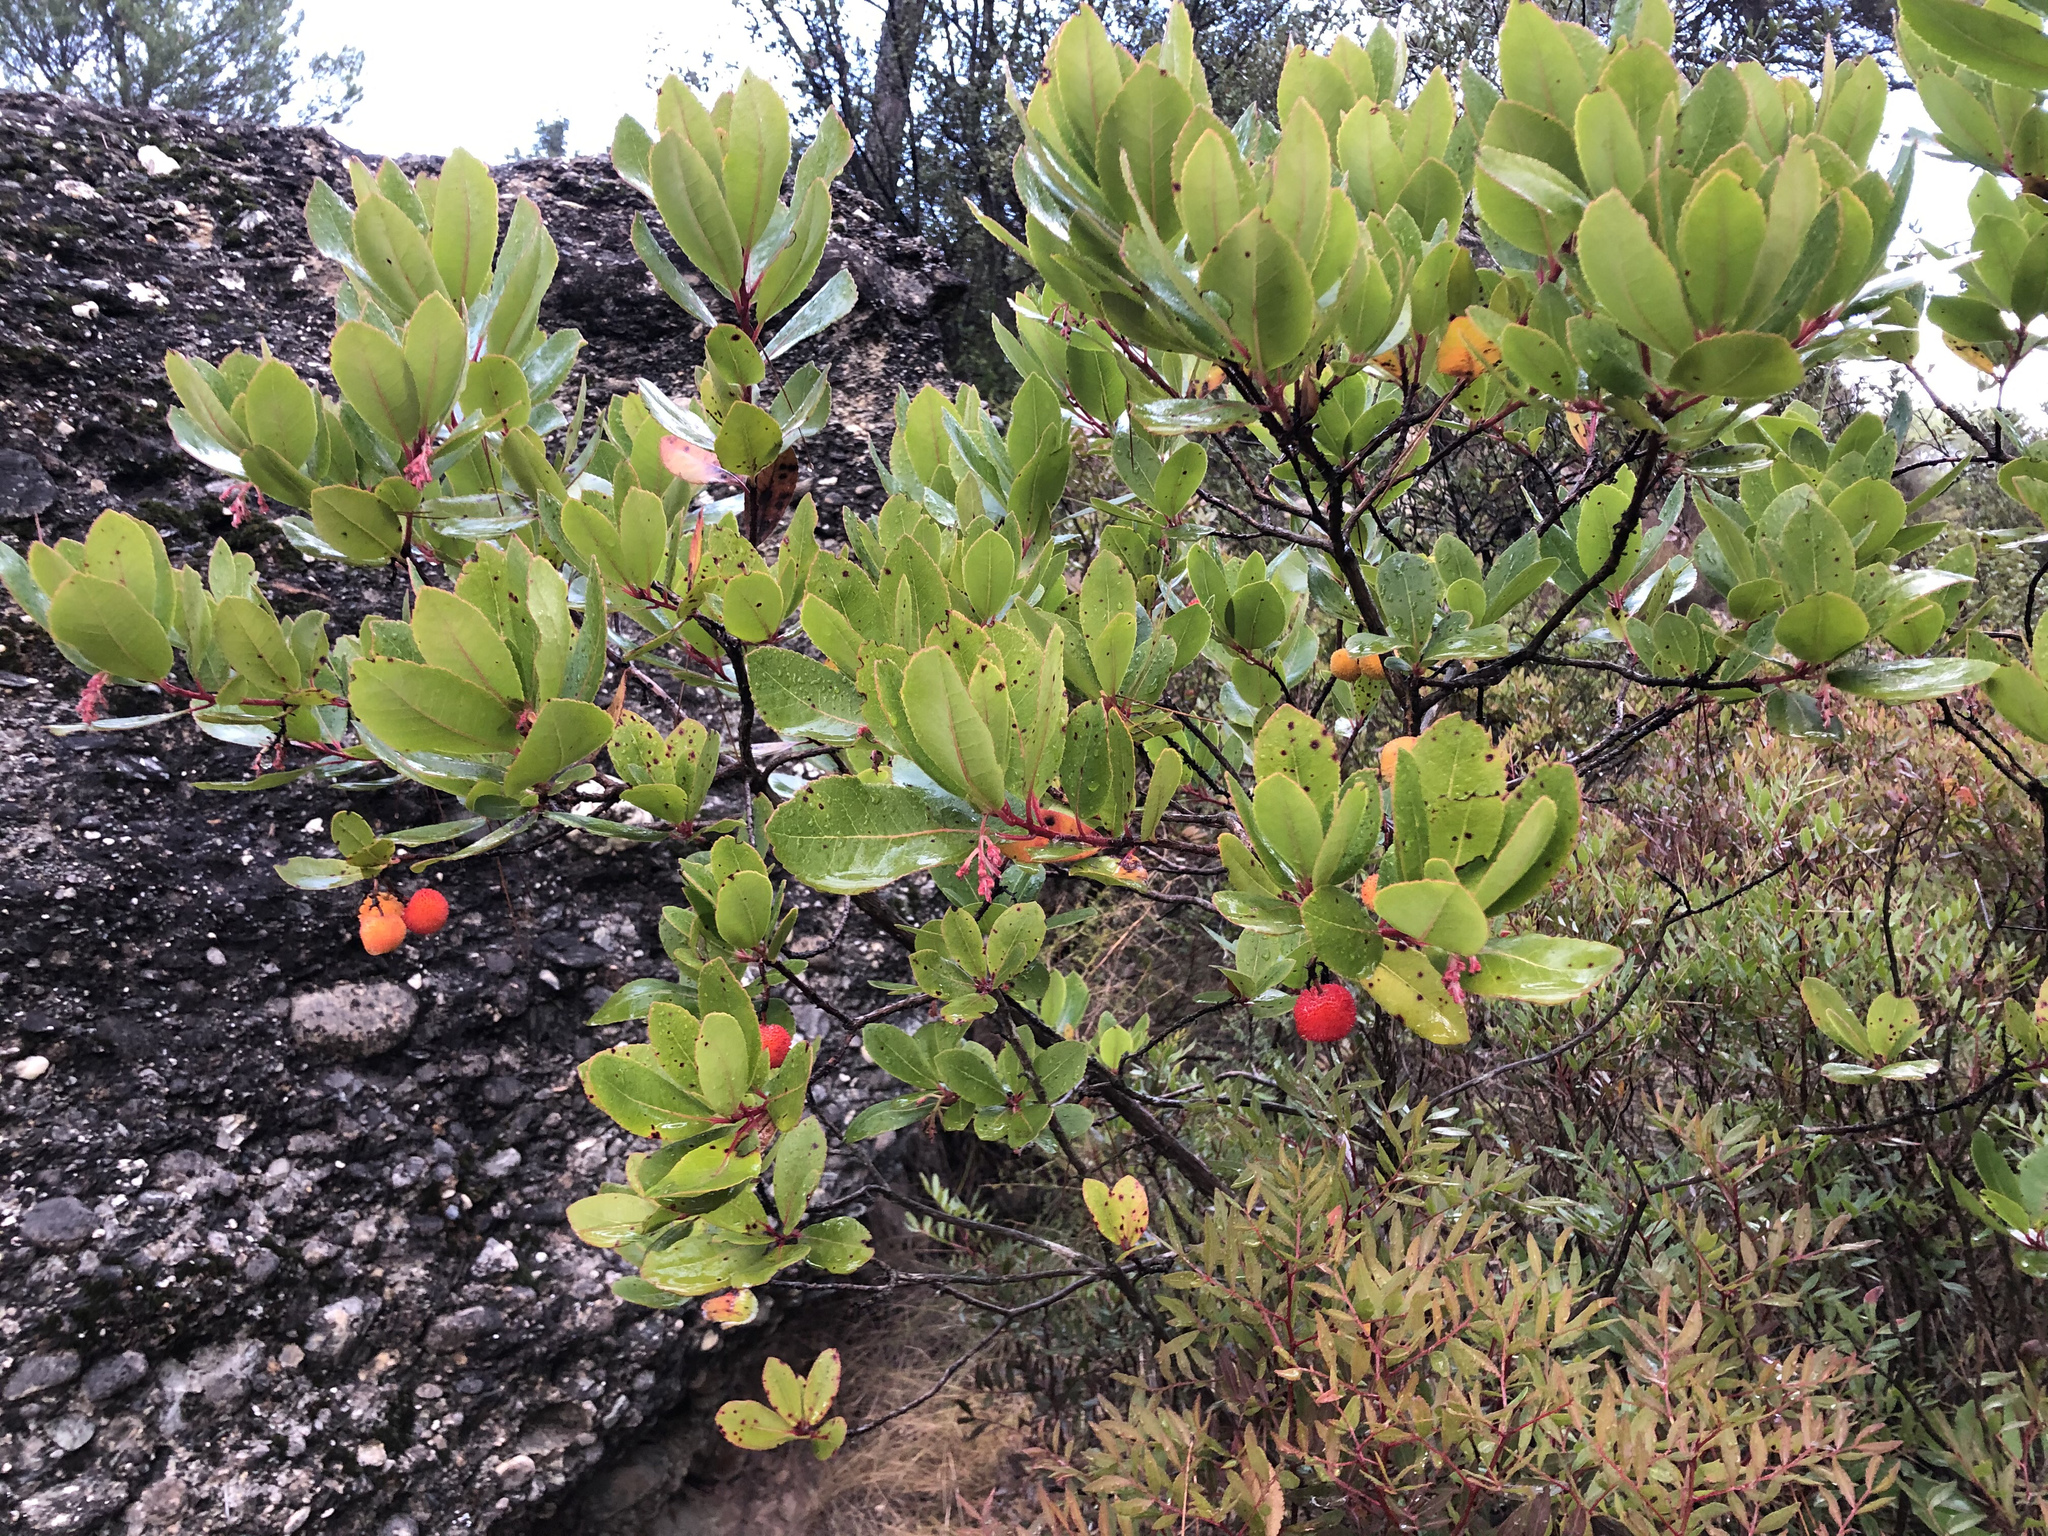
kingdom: Plantae
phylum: Tracheophyta
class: Magnoliopsida
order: Ericales
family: Ericaceae
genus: Arbutus
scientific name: Arbutus unedo
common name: Strawberry-tree
